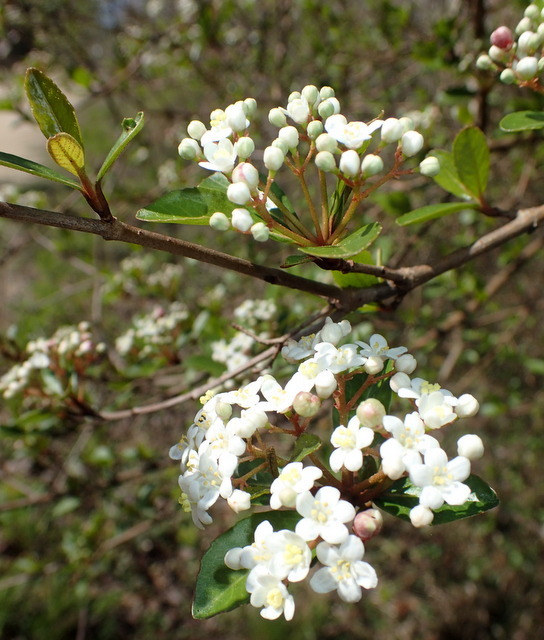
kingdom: Plantae
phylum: Tracheophyta
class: Magnoliopsida
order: Dipsacales
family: Viburnaceae
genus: Viburnum
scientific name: Viburnum obovatum
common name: Walter's viburnum
